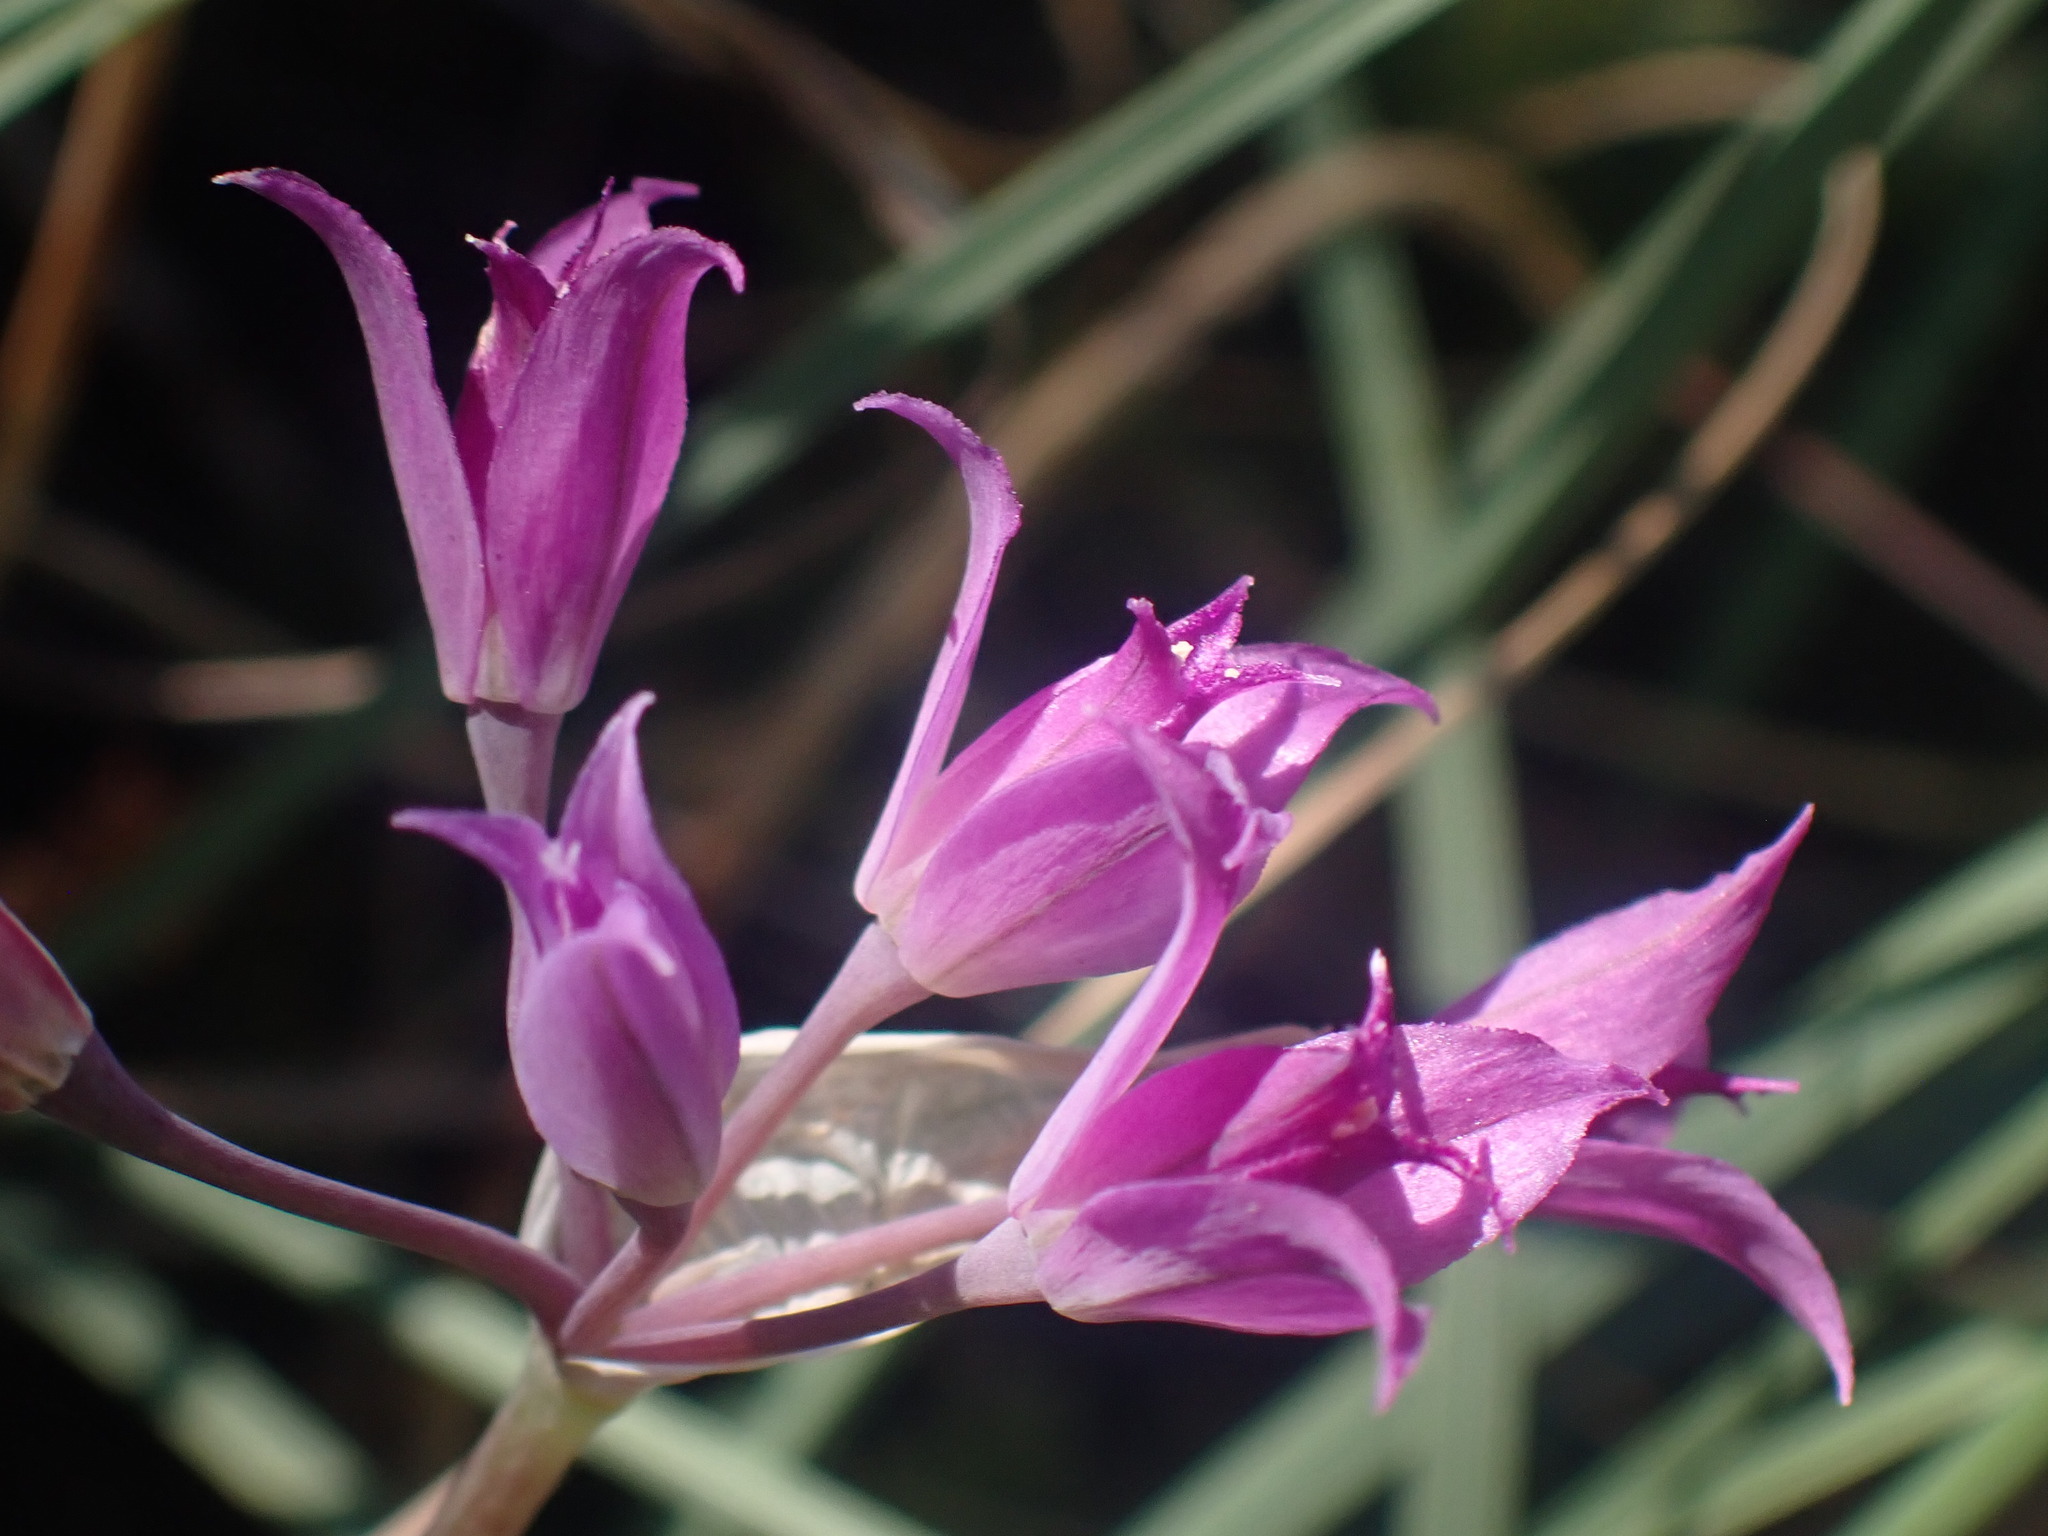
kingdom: Plantae
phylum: Tracheophyta
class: Liliopsida
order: Asparagales
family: Amaryllidaceae
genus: Allium
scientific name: Allium acuminatum
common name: Hooker's onion
